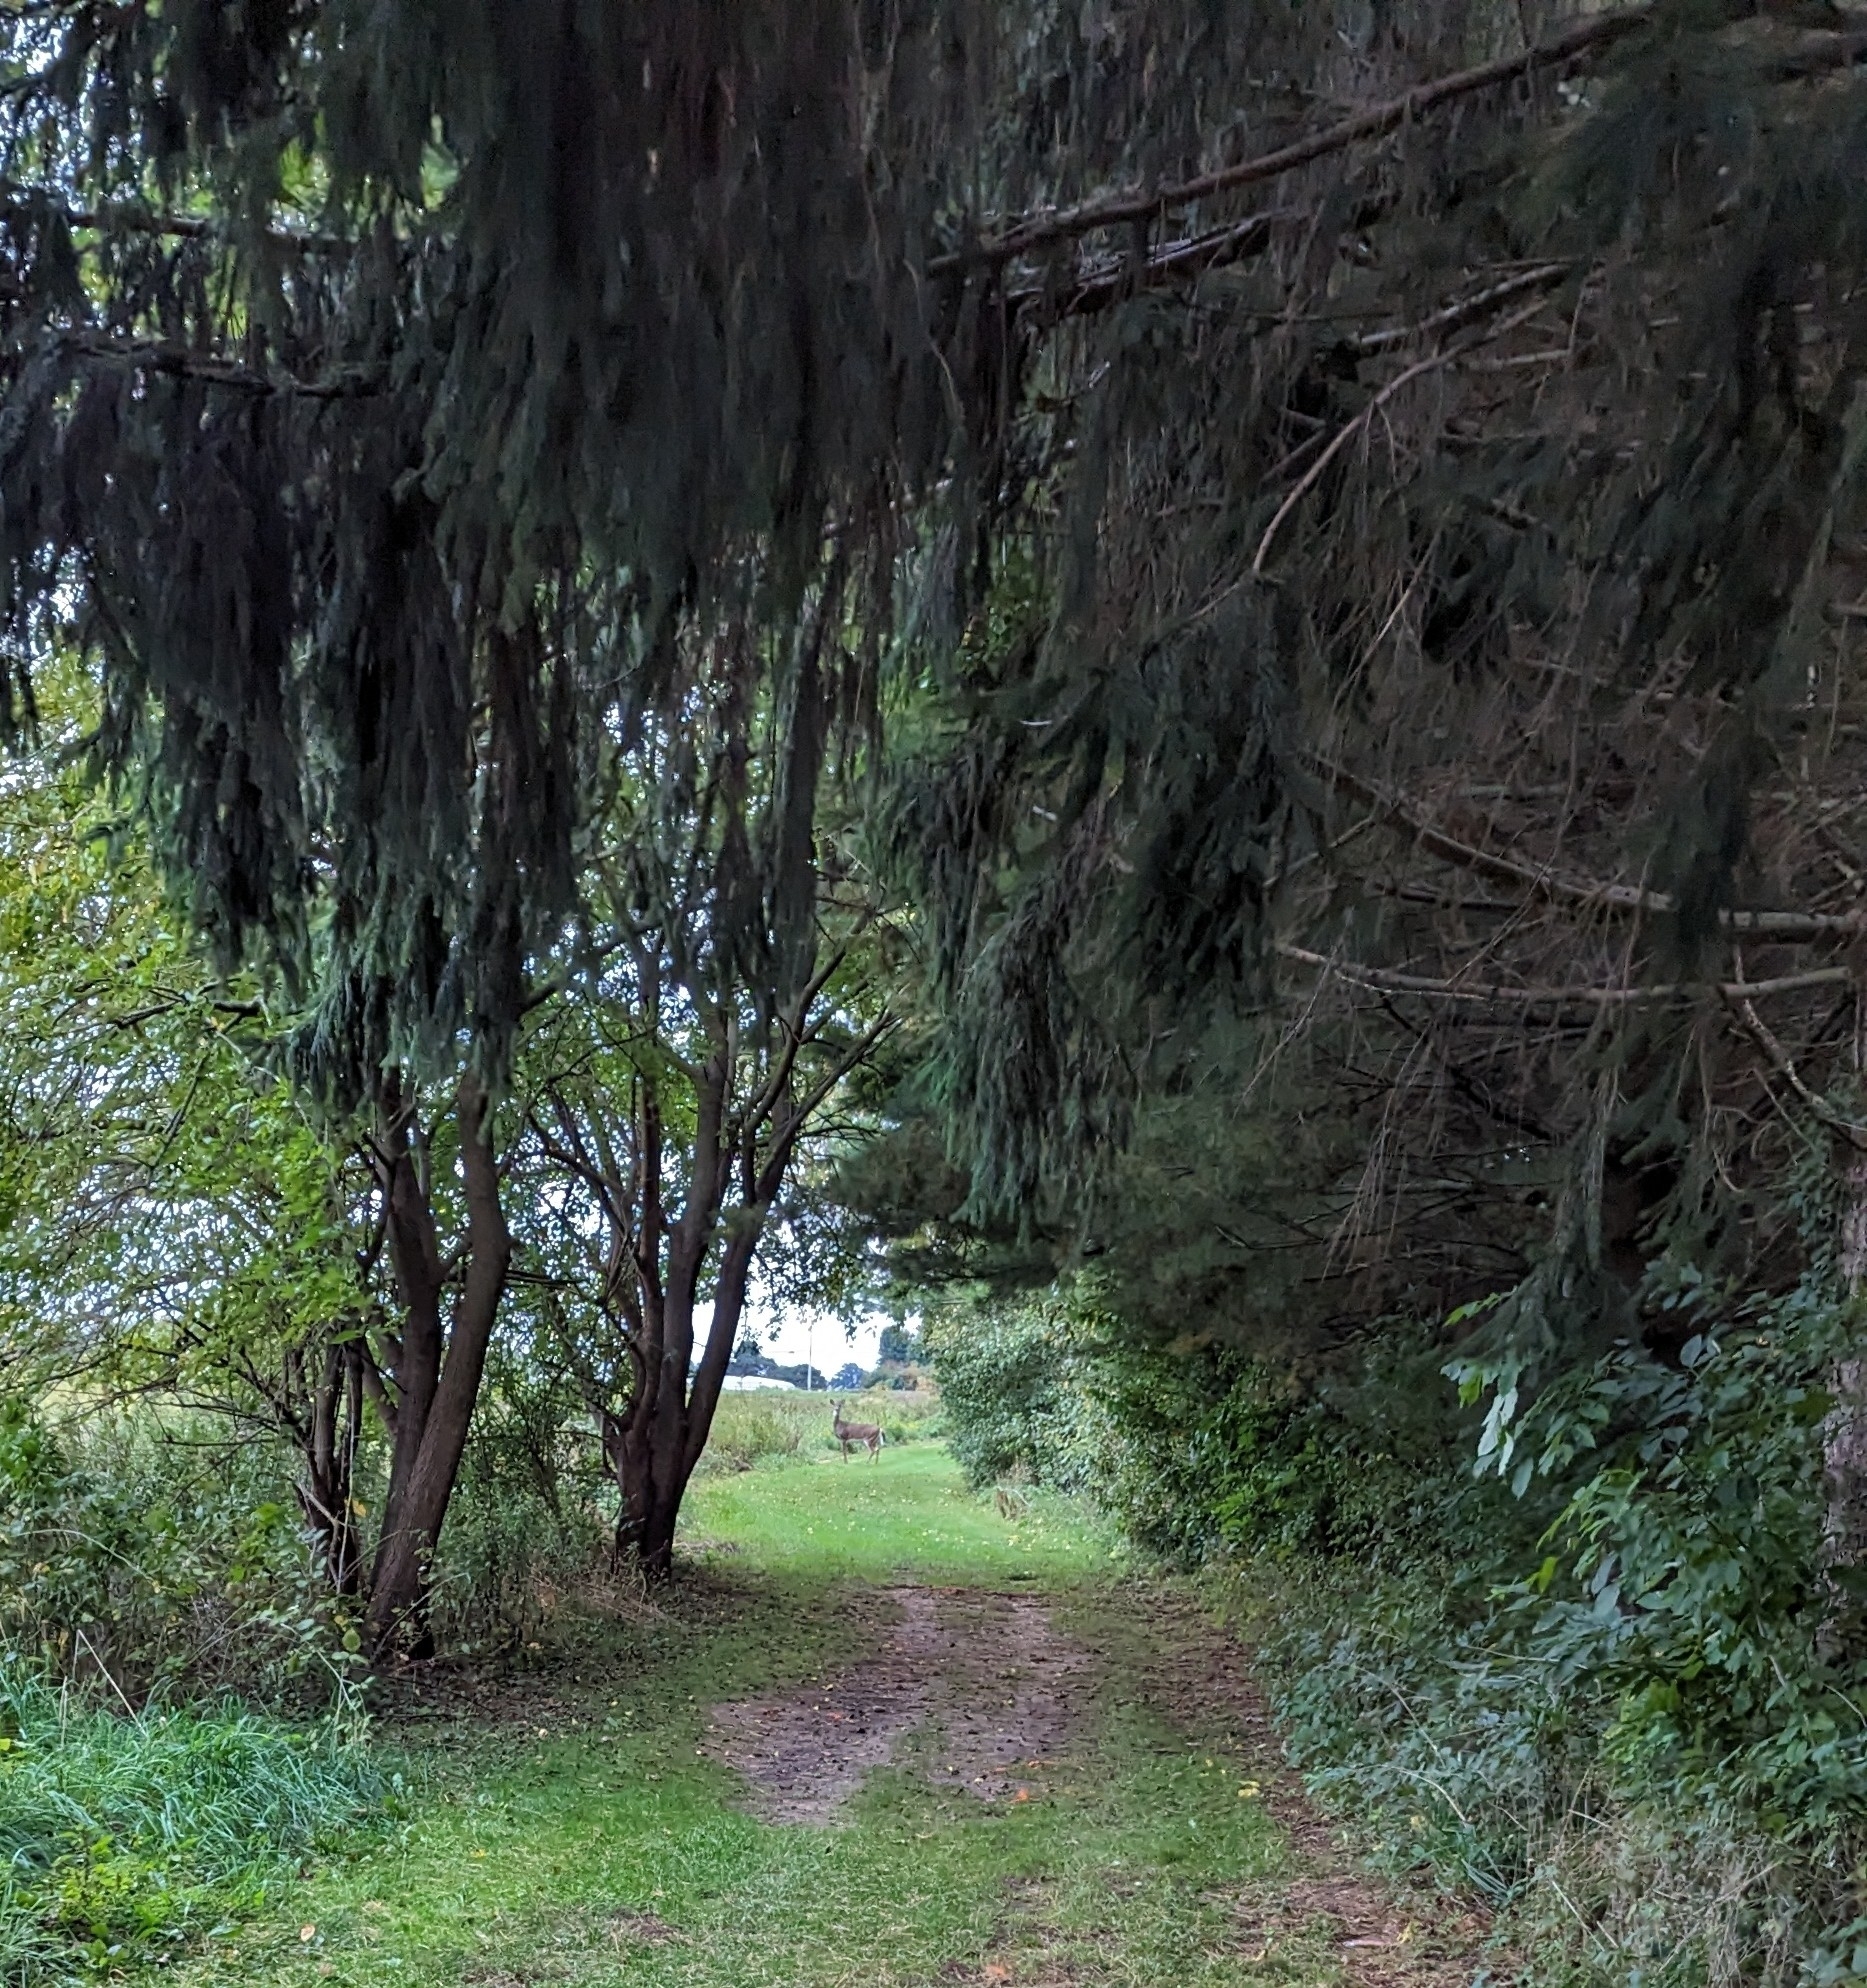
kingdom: Animalia
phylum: Chordata
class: Mammalia
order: Artiodactyla
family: Cervidae
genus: Odocoileus
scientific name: Odocoileus virginianus
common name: White-tailed deer
